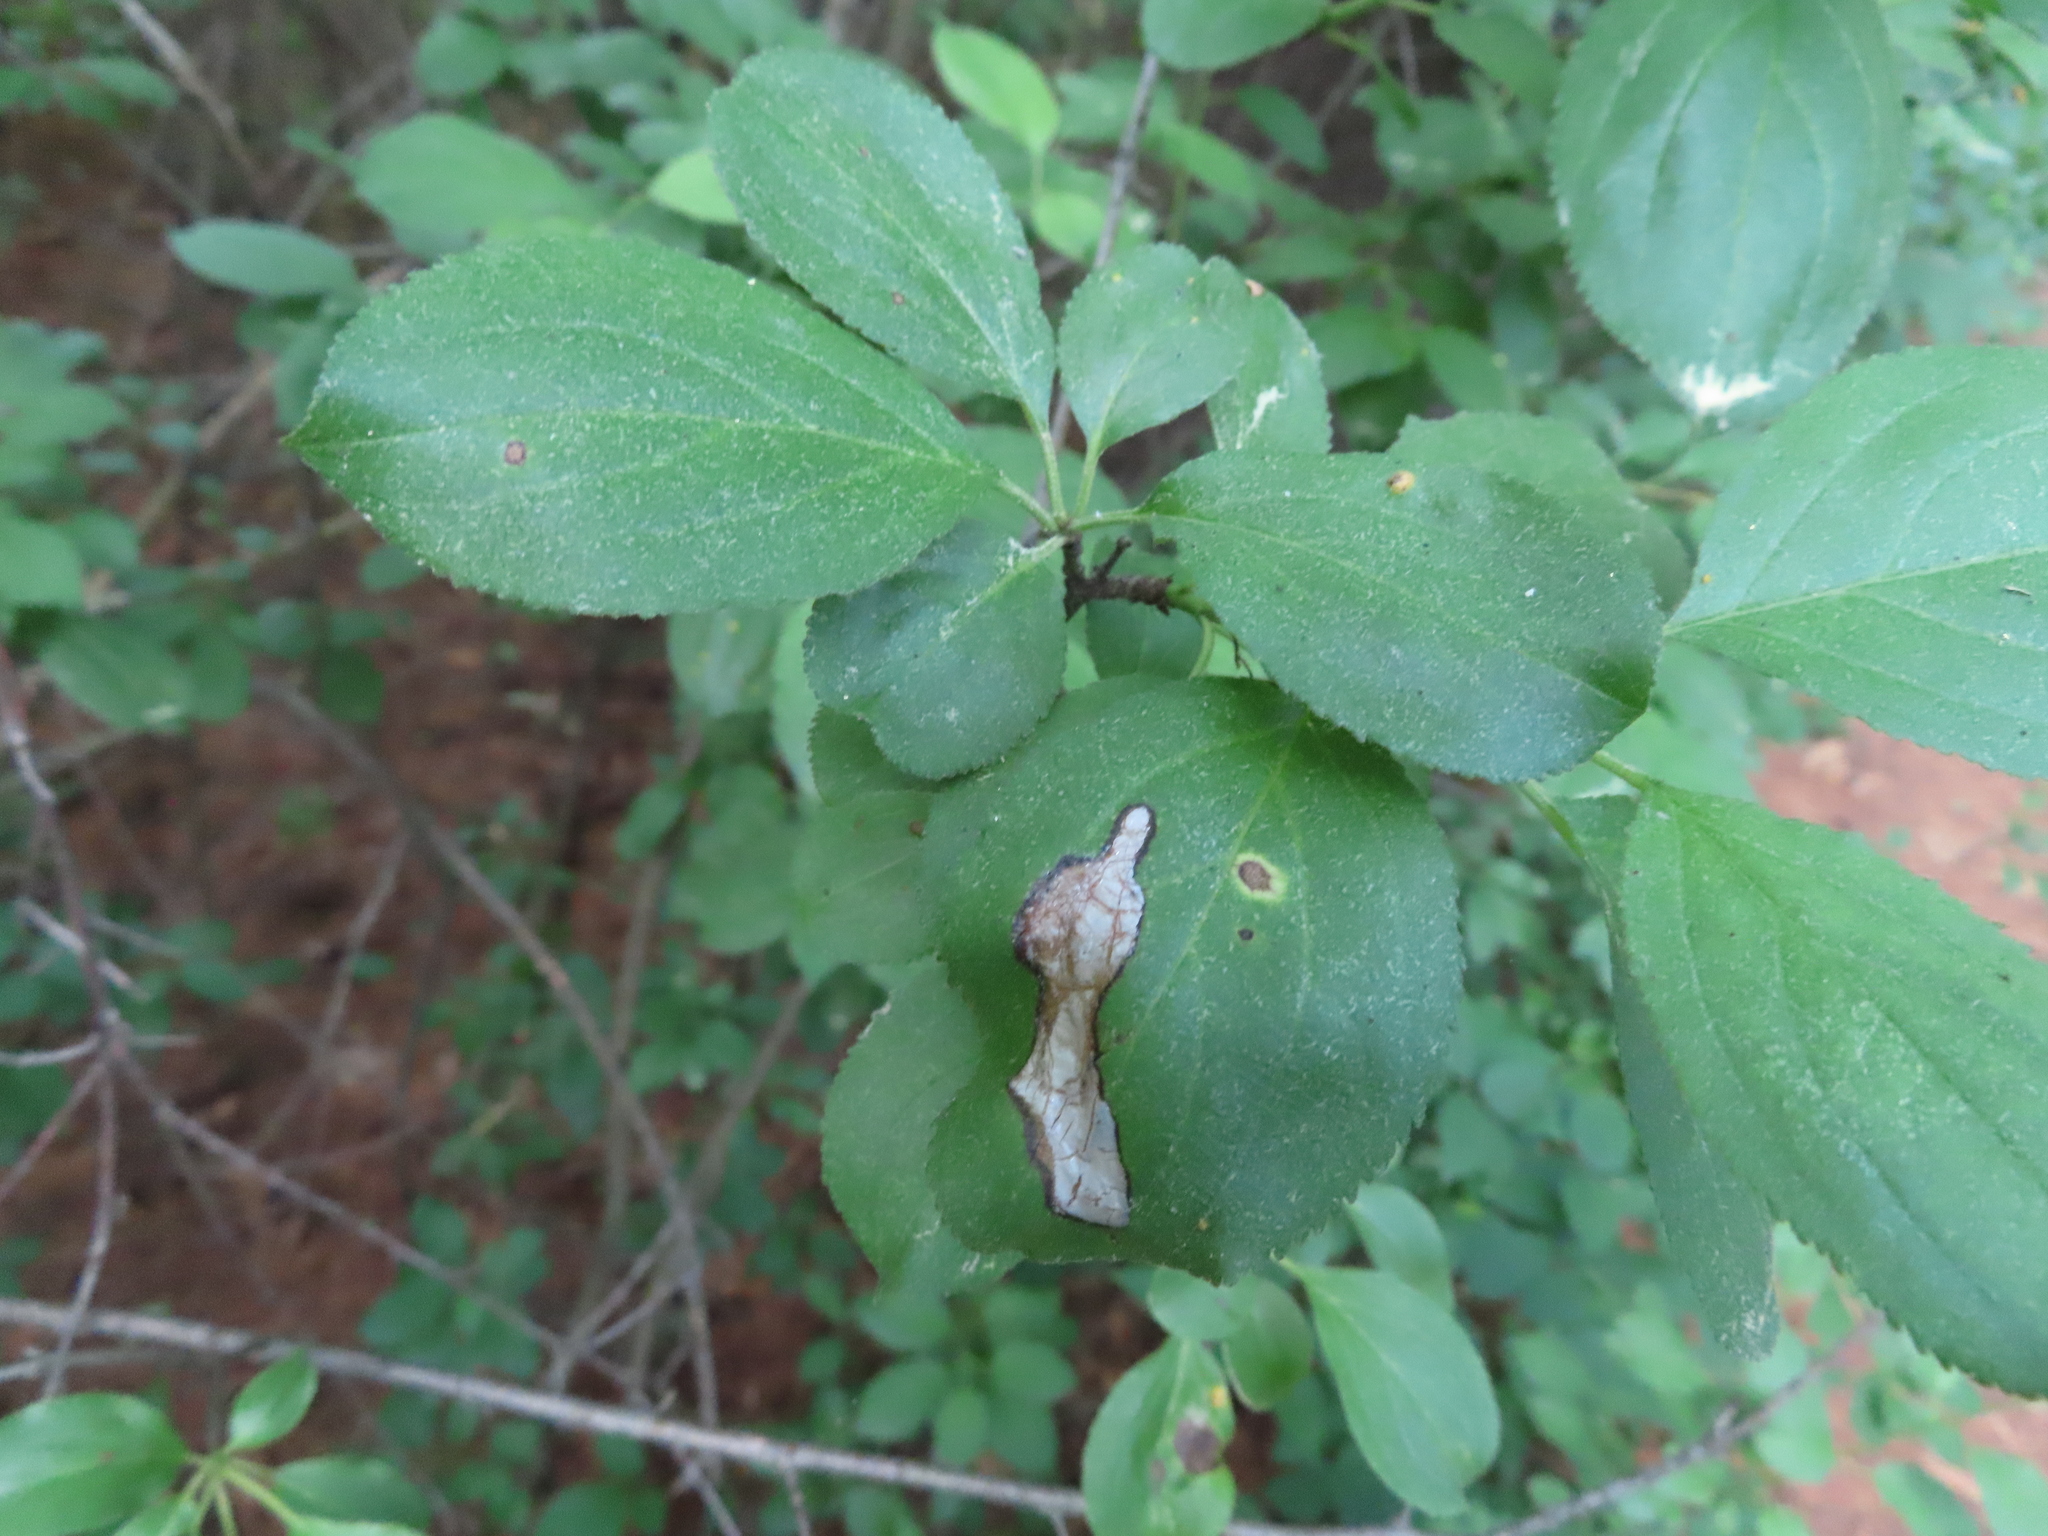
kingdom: Plantae
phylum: Tracheophyta
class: Magnoliopsida
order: Rosales
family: Rhamnaceae
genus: Rhamnus
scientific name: Rhamnus cathartica
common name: Common buckthorn
